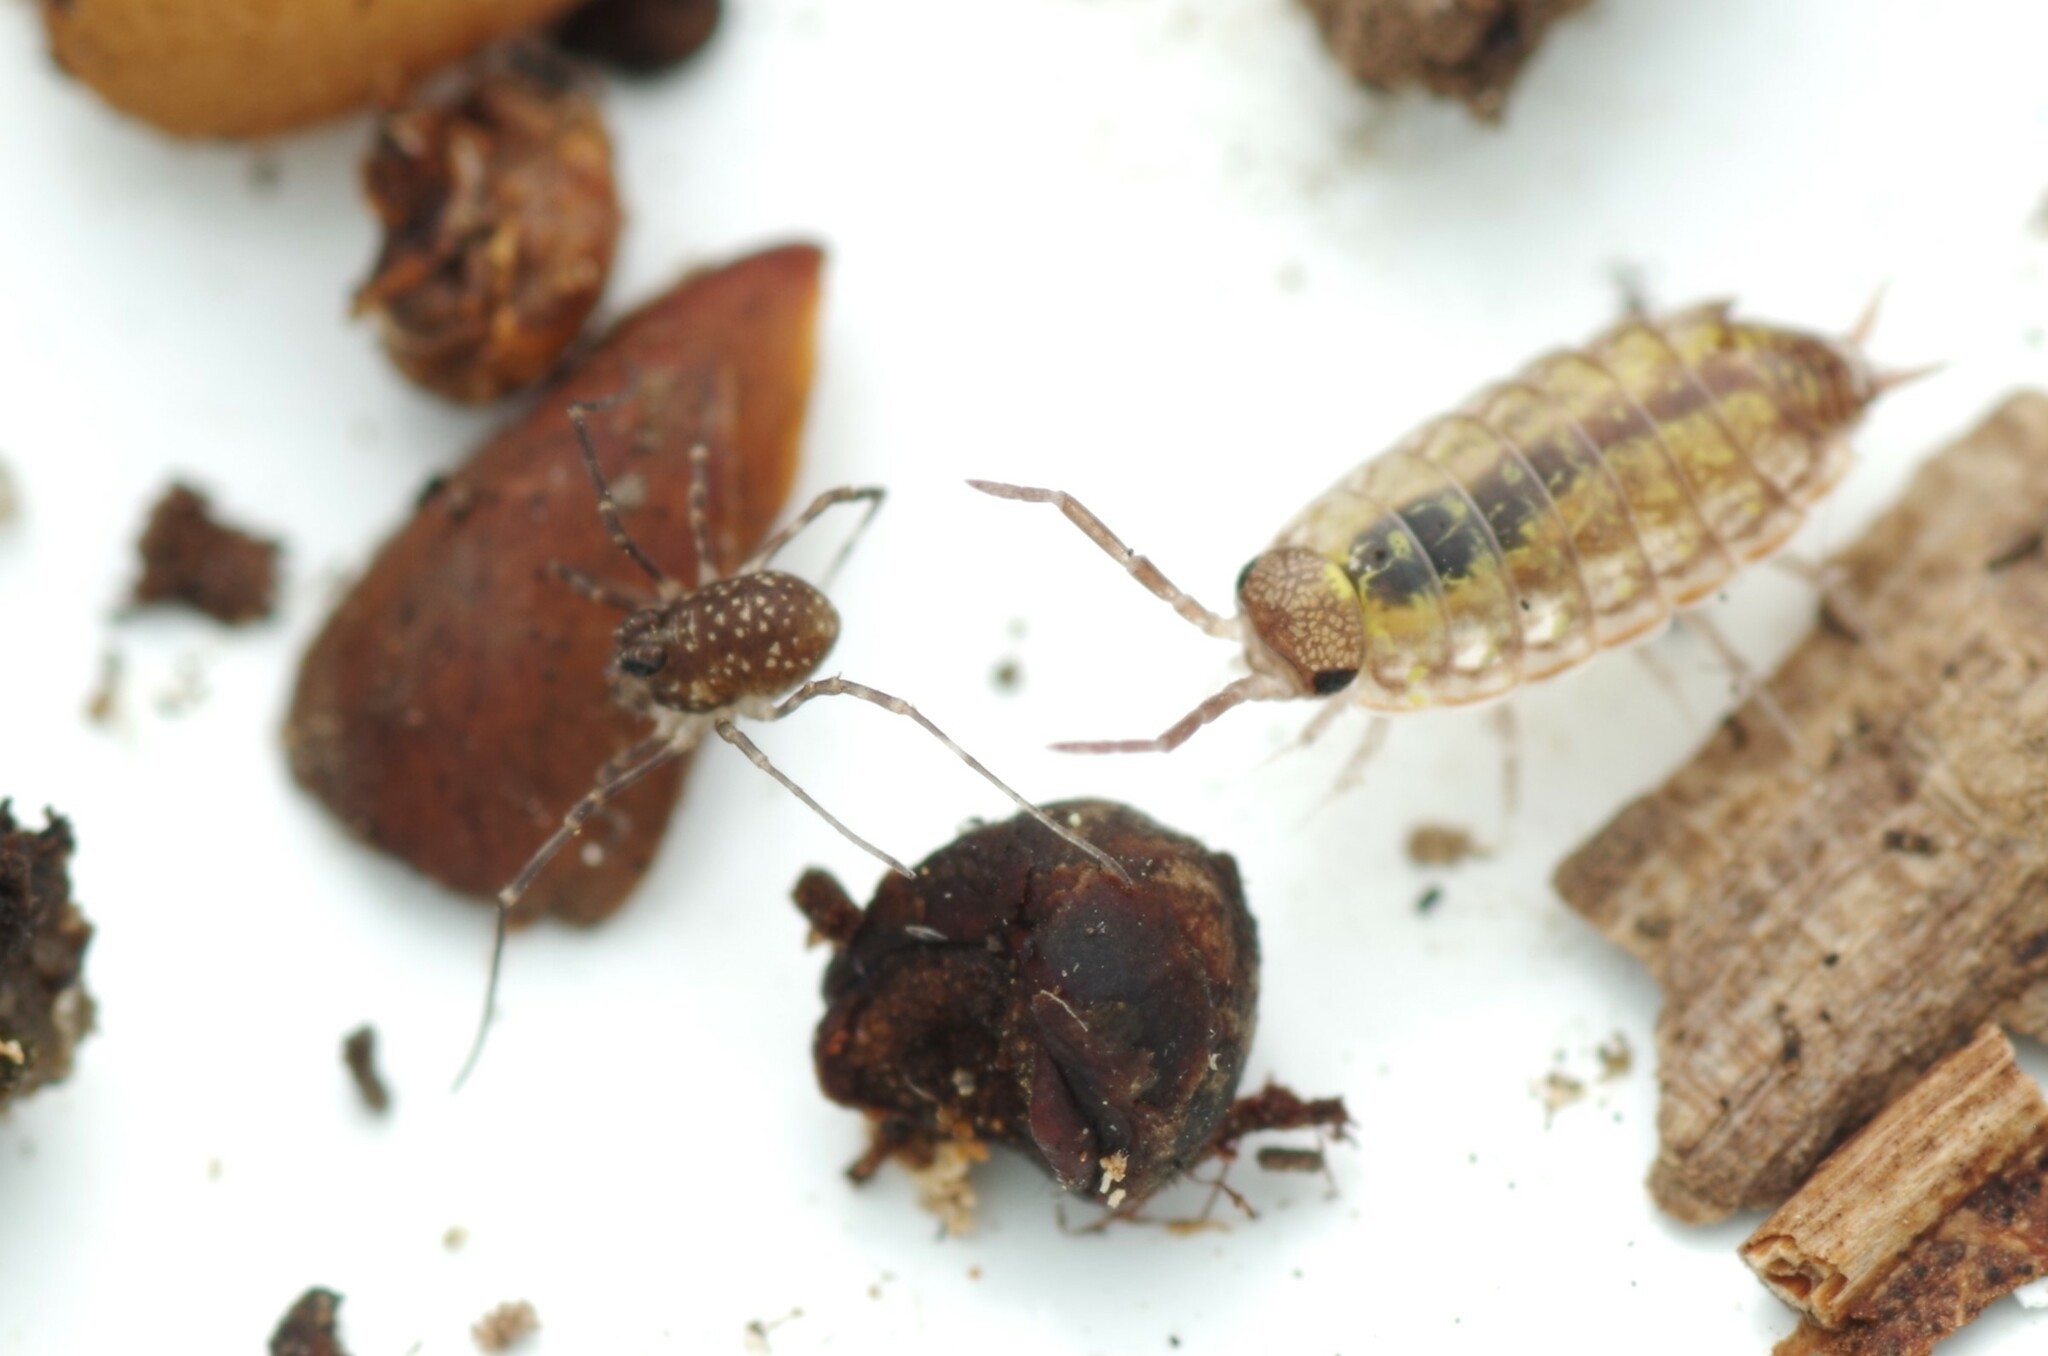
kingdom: Animalia
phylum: Arthropoda
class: Arachnida
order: Opiliones
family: Phalangiidae
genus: Rilaena
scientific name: Rilaena triangularis
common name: Spring harvestman
